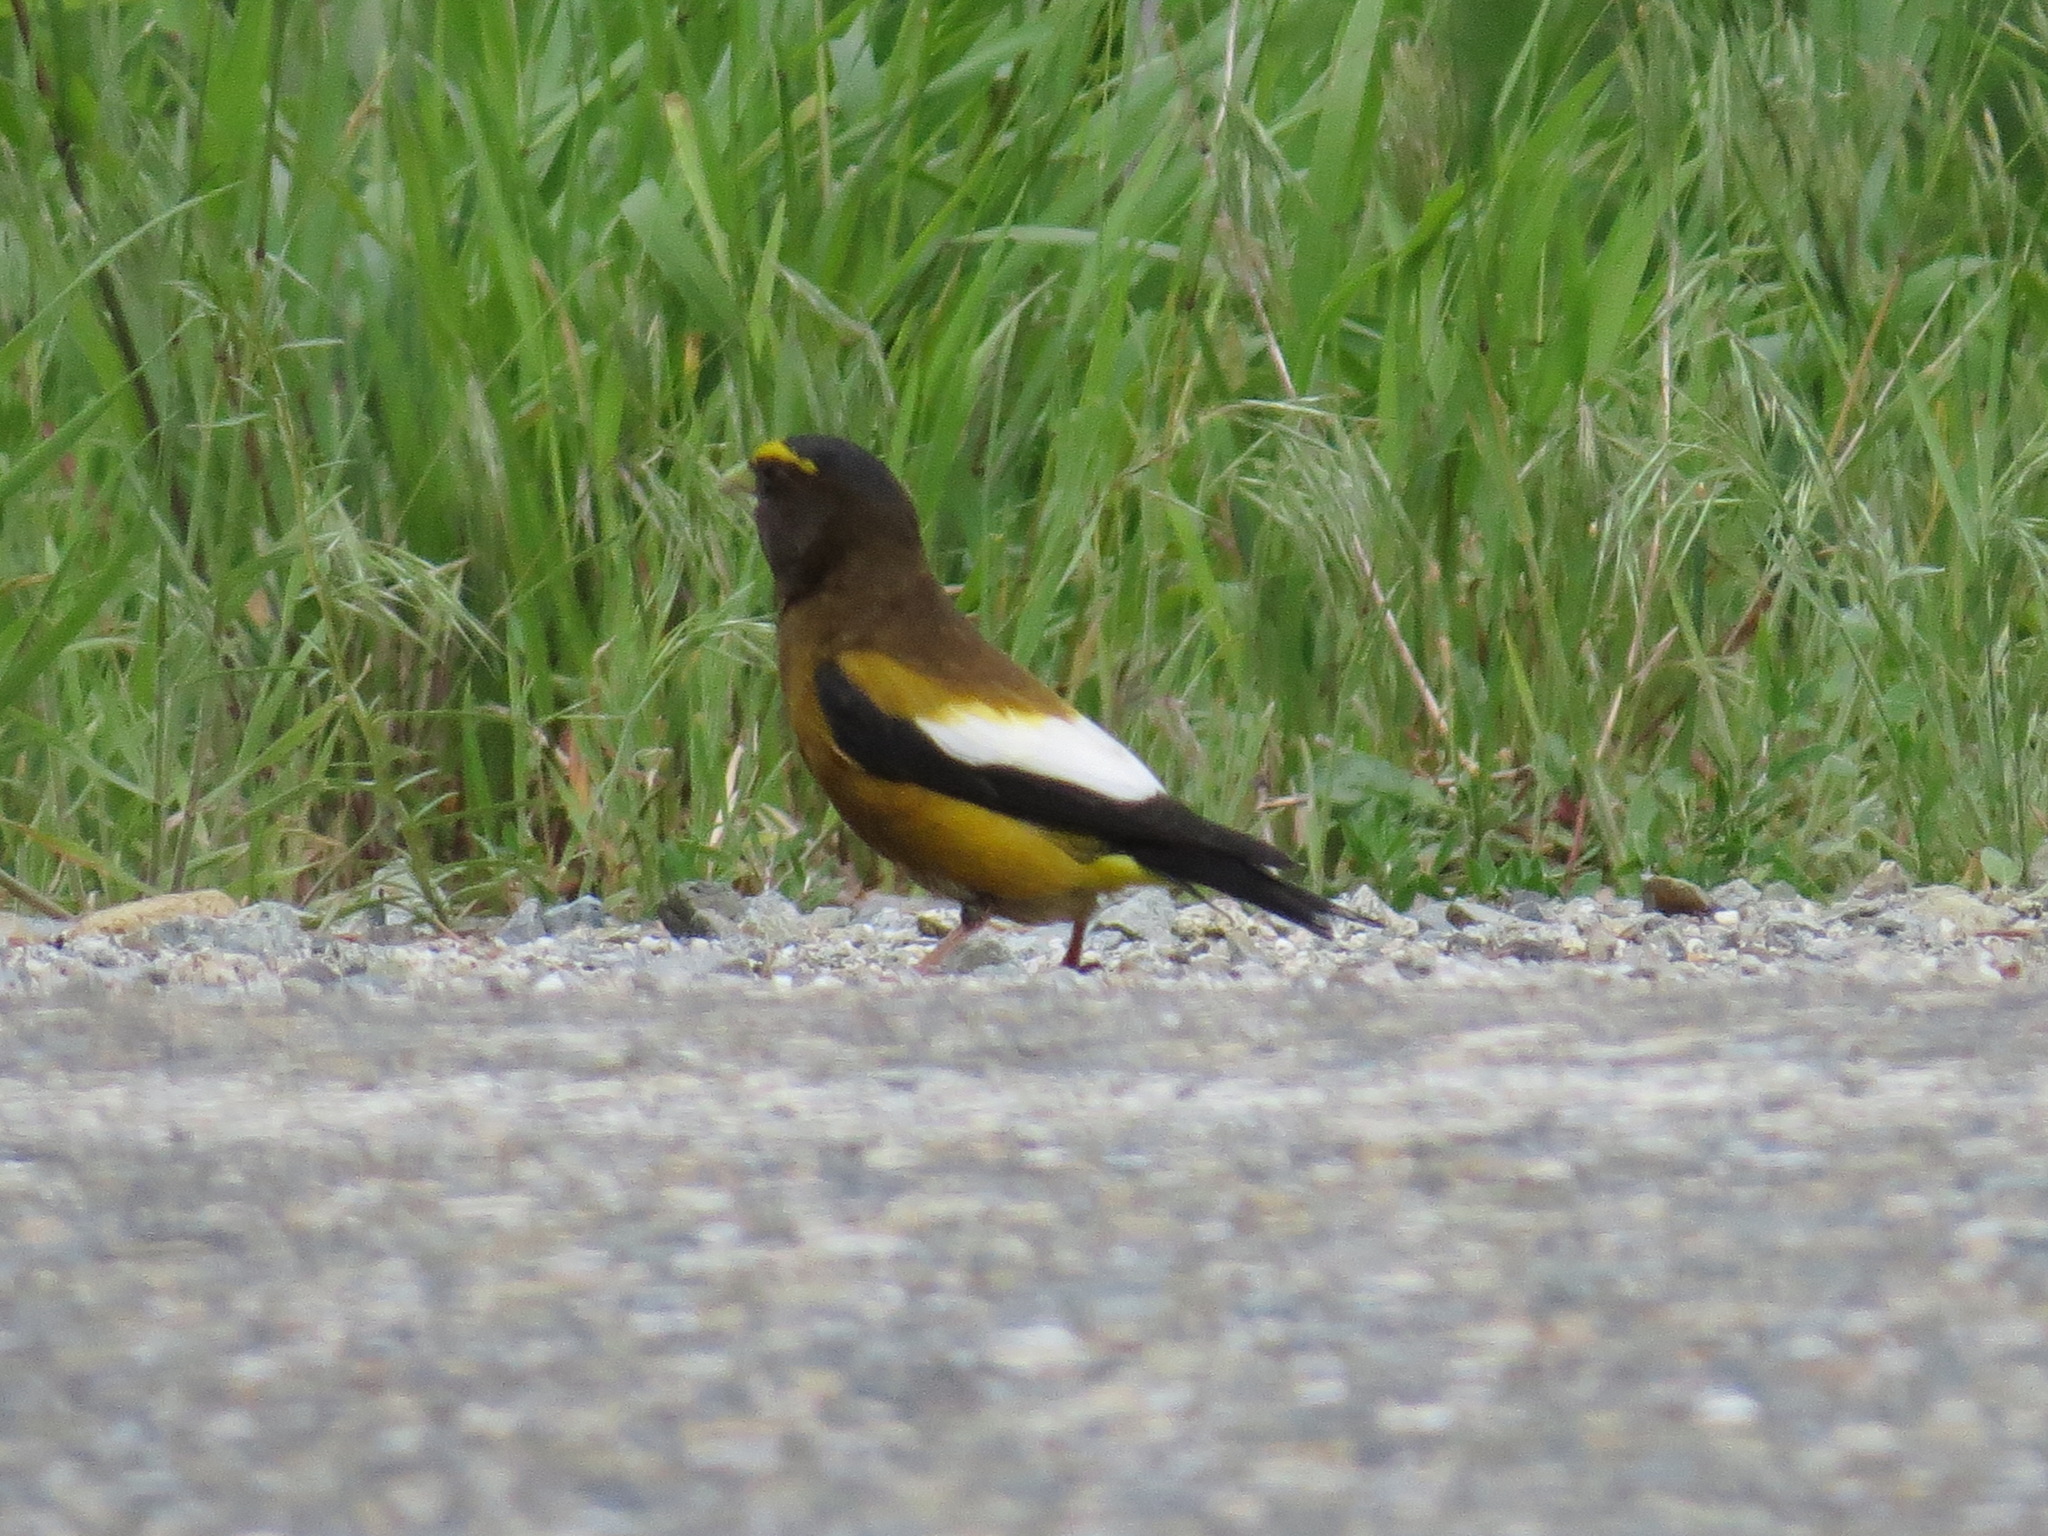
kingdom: Animalia
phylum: Chordata
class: Aves
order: Passeriformes
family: Fringillidae
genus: Hesperiphona
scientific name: Hesperiphona vespertina
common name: Evening grosbeak
